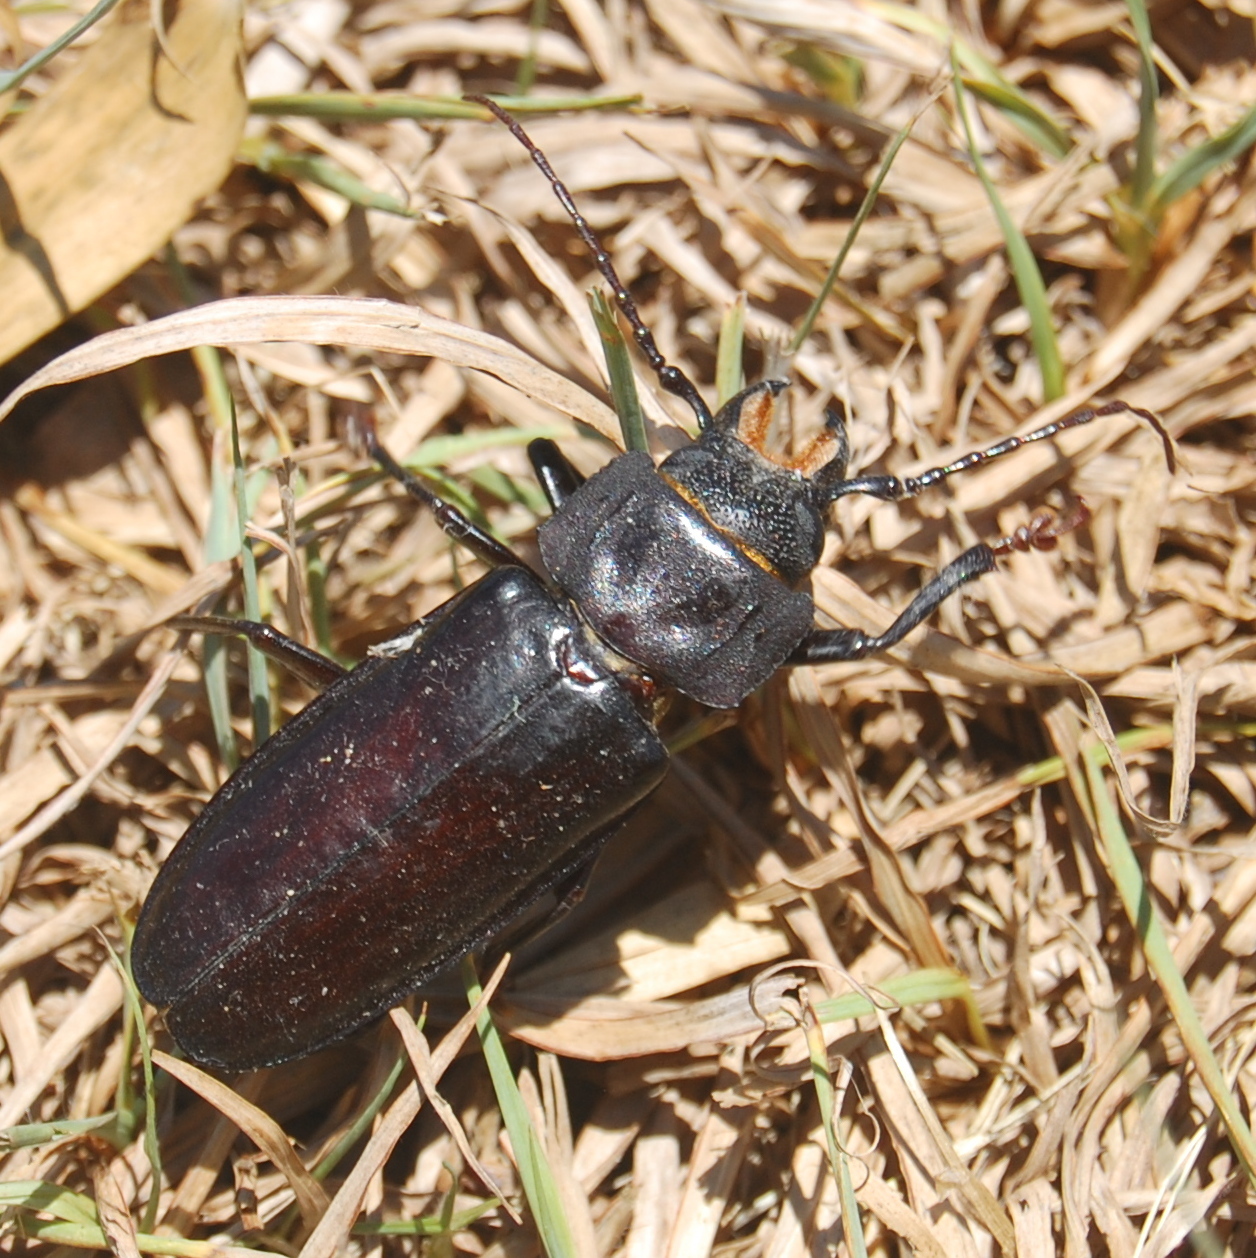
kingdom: Animalia
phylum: Arthropoda
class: Insecta
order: Coleoptera
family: Cerambycidae
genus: Mallodon
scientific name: Mallodon dasystomum
